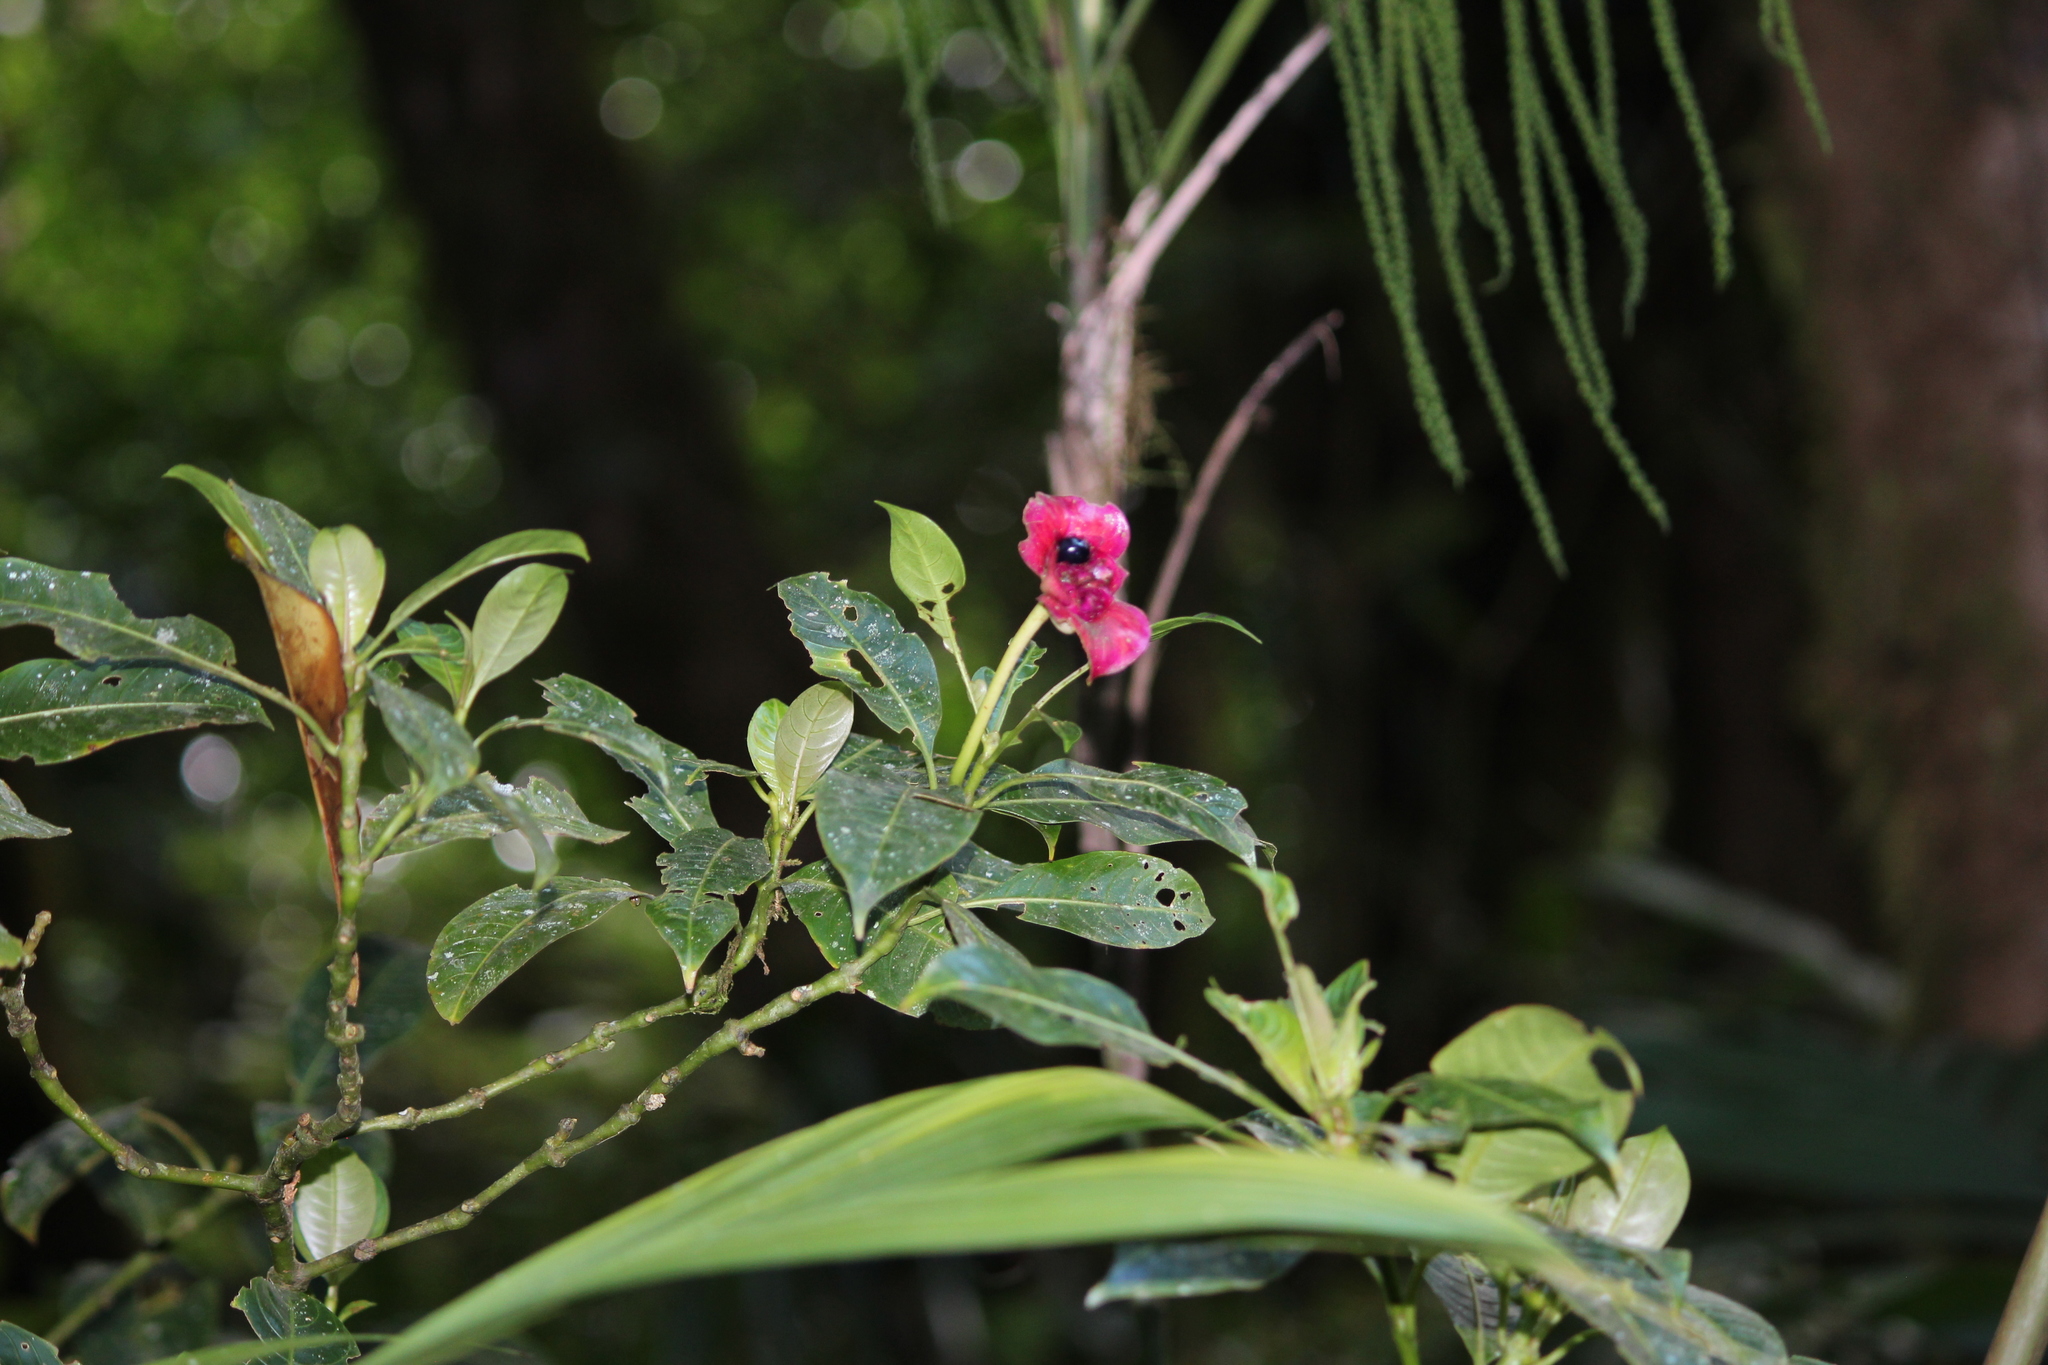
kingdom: Plantae
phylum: Tracheophyta
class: Magnoliopsida
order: Gentianales
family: Rubiaceae
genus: Palicourea
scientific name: Palicourea elata
